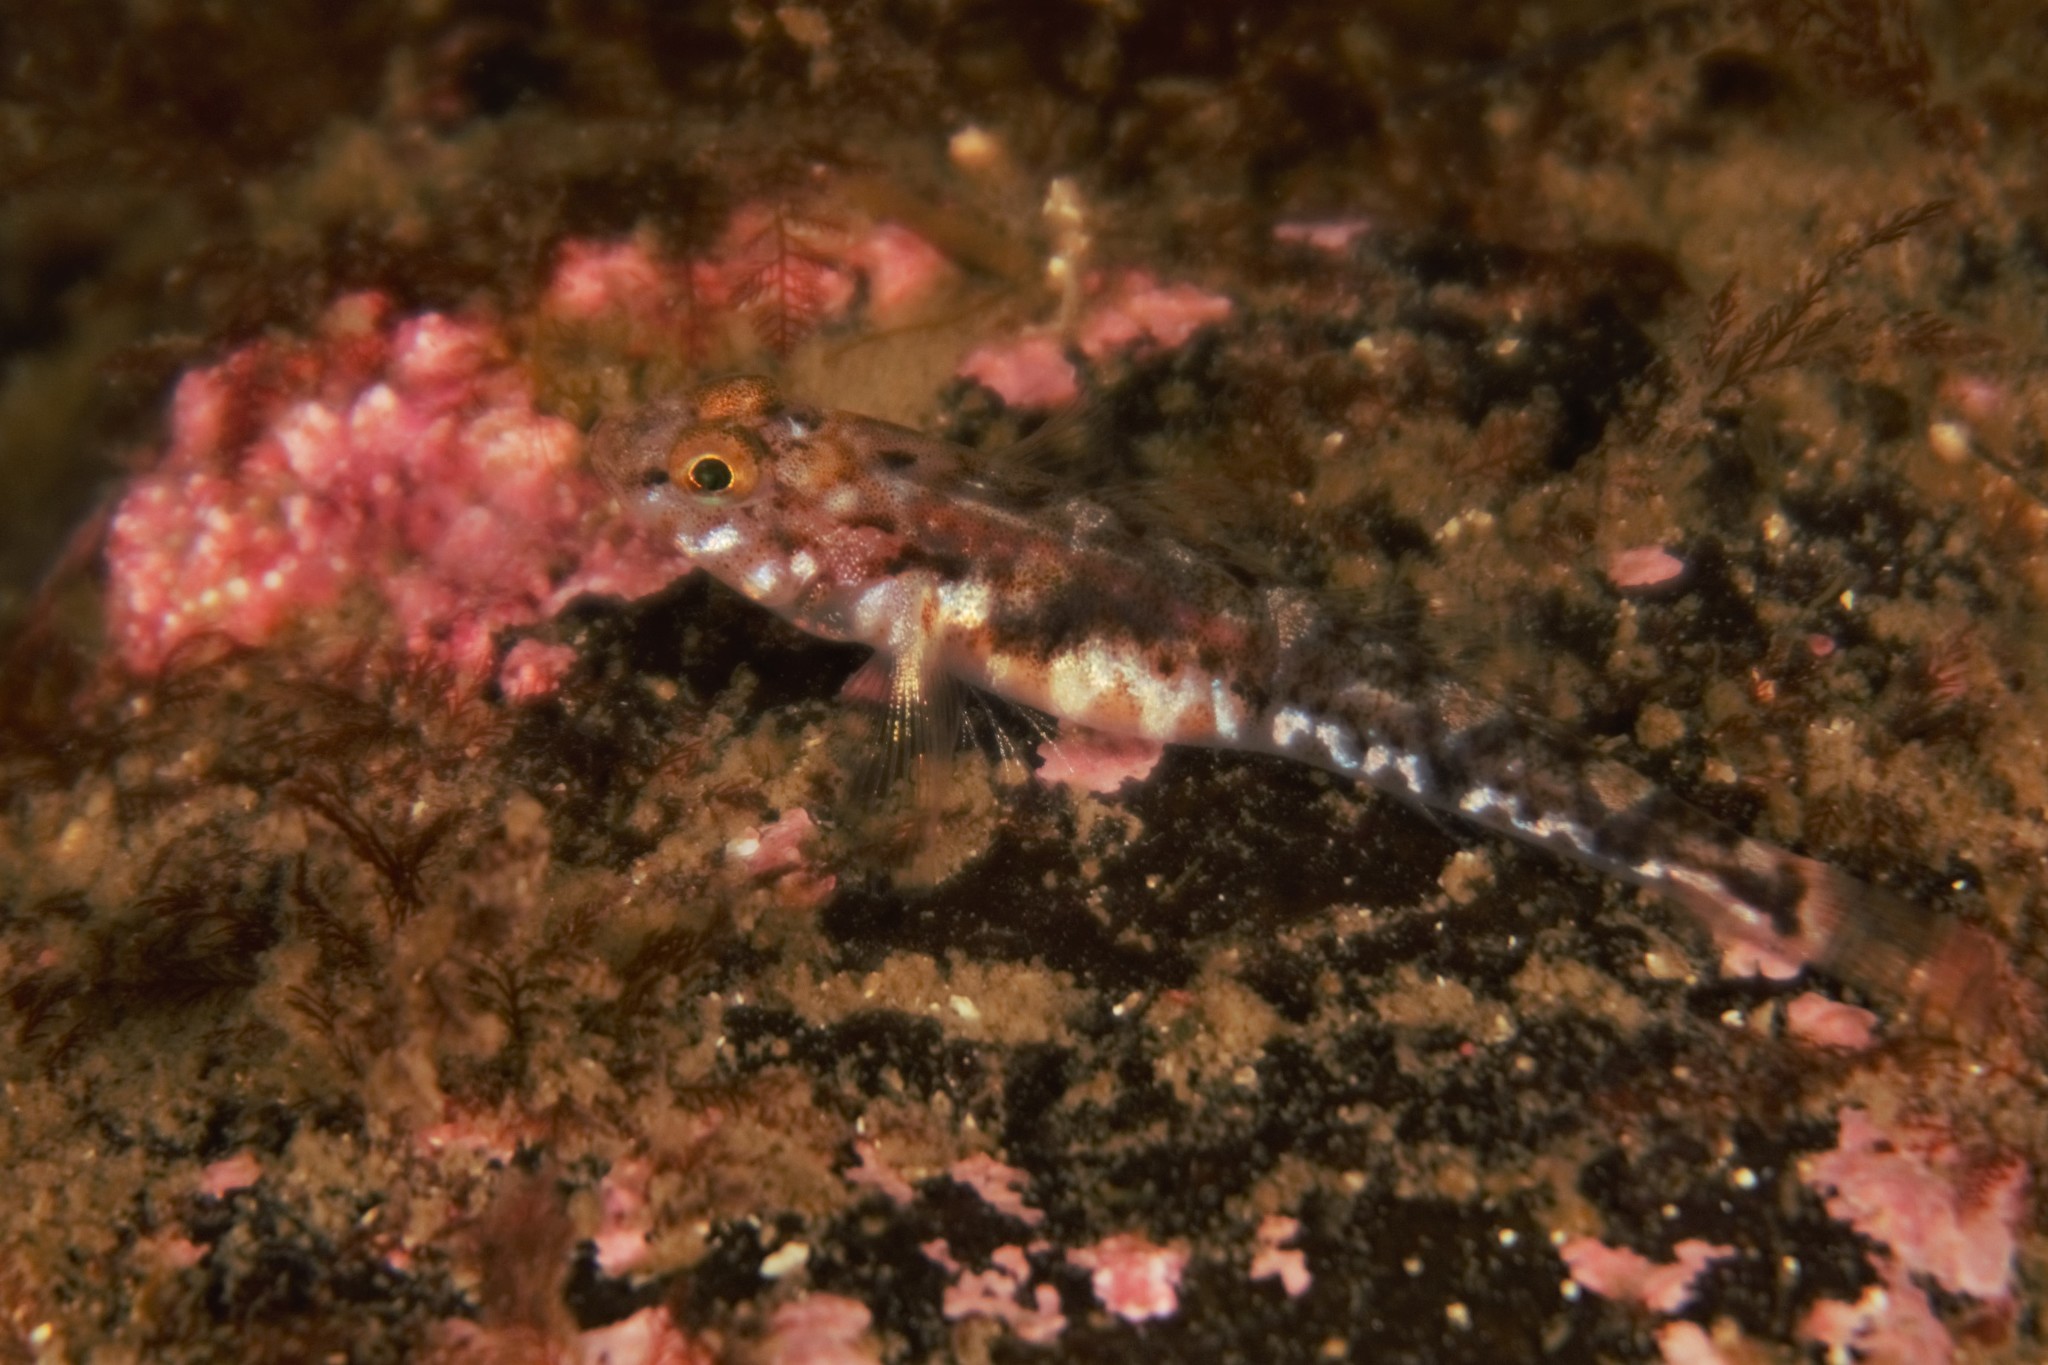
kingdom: Animalia
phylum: Chordata
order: Perciformes
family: Gobiidae
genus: Pomatoschistus
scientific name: Pomatoschistus pictus
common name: Painted goby
